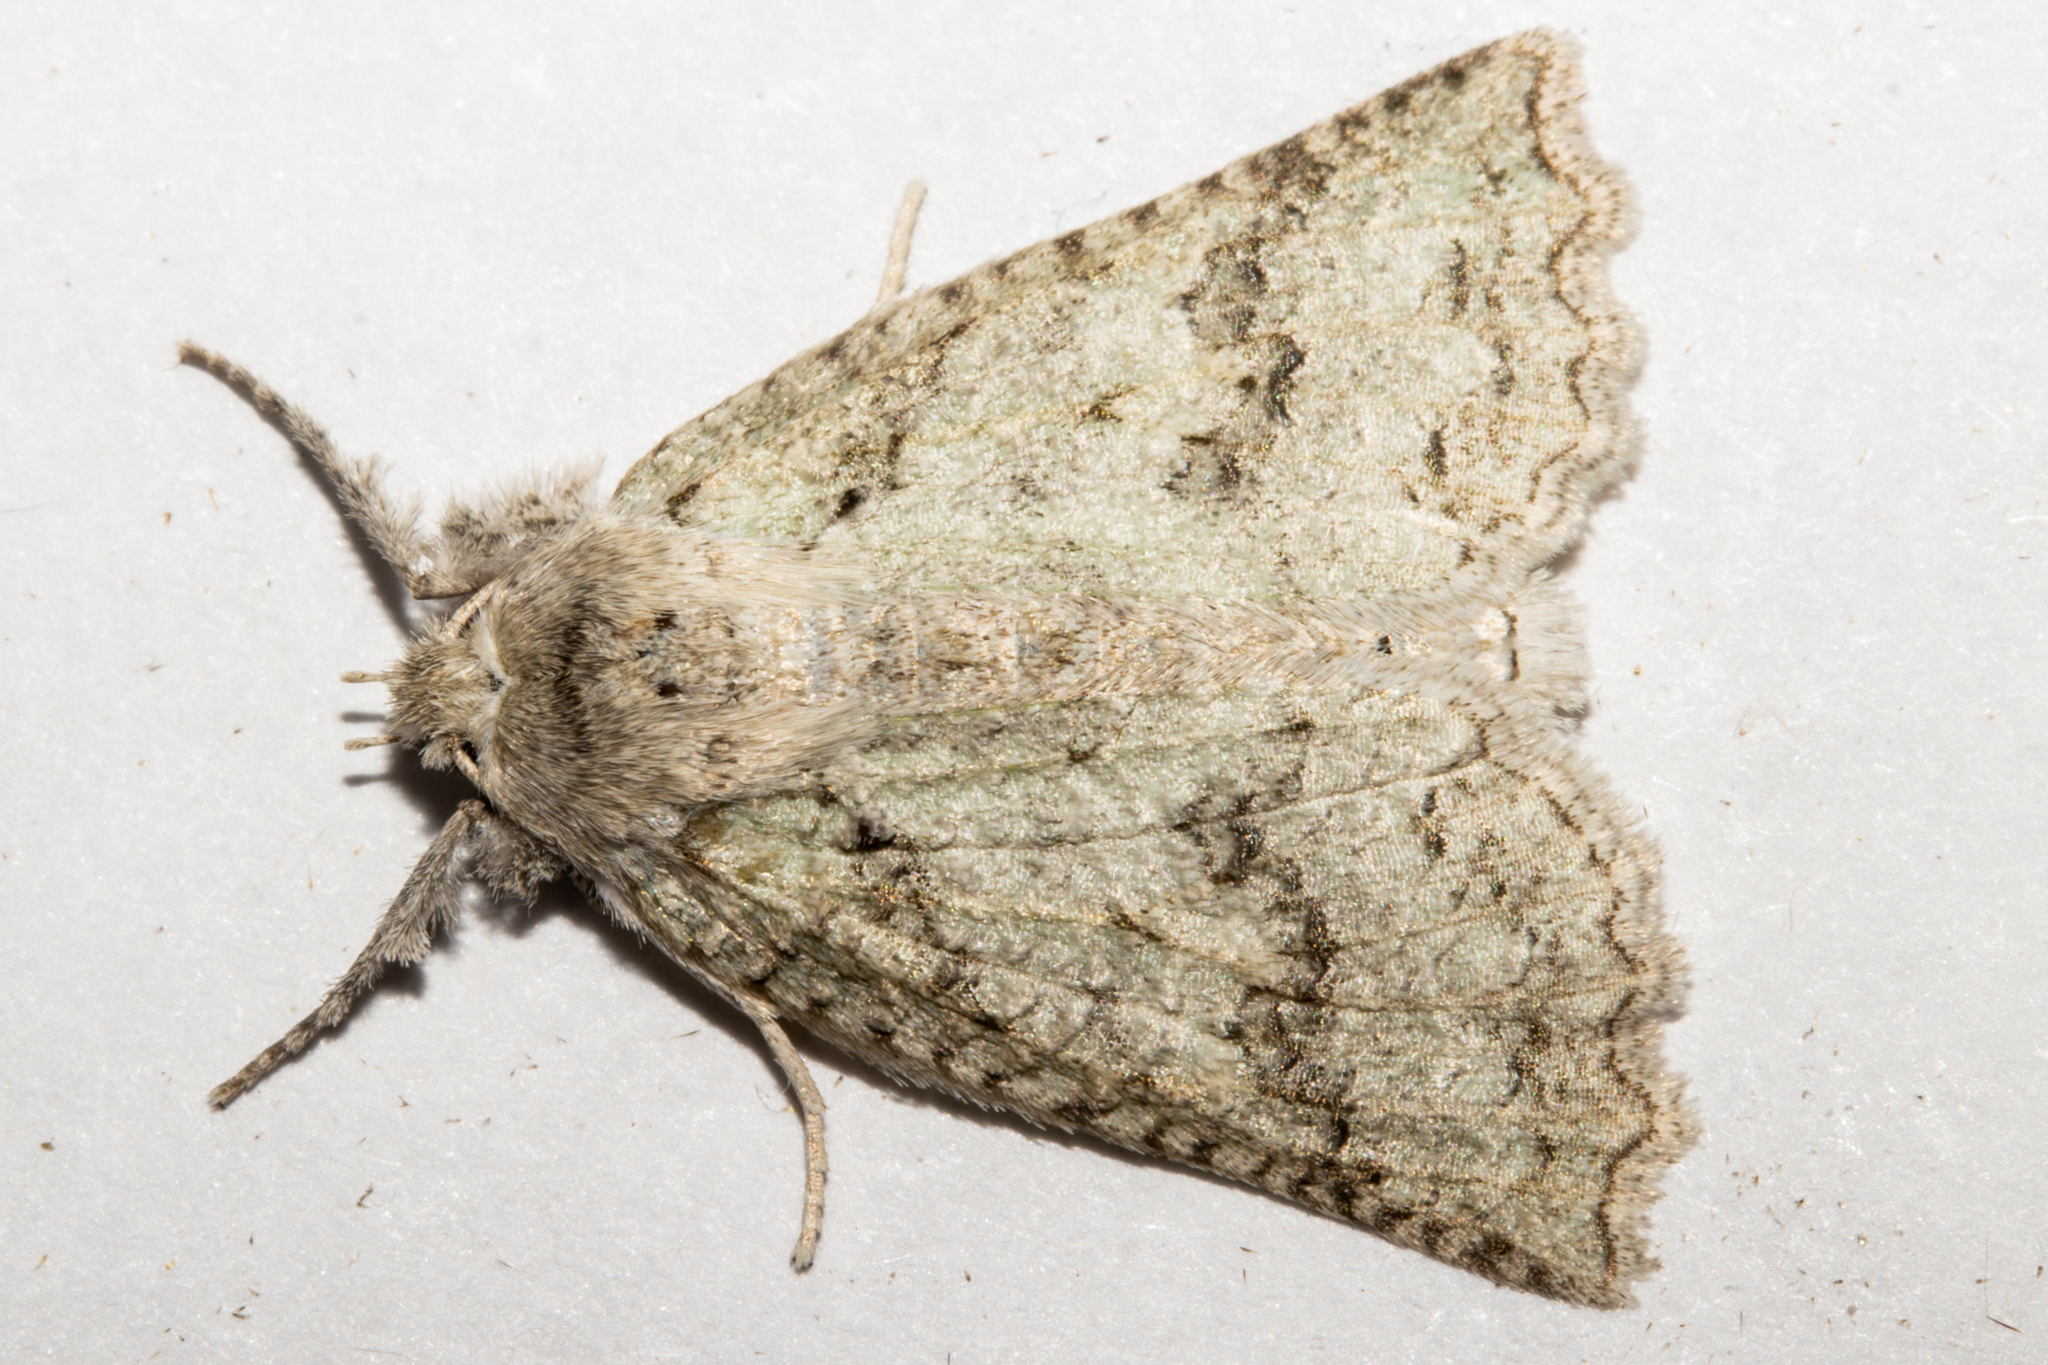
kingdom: Animalia
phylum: Arthropoda
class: Insecta
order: Lepidoptera
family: Geometridae
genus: Declana
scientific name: Declana niveata
